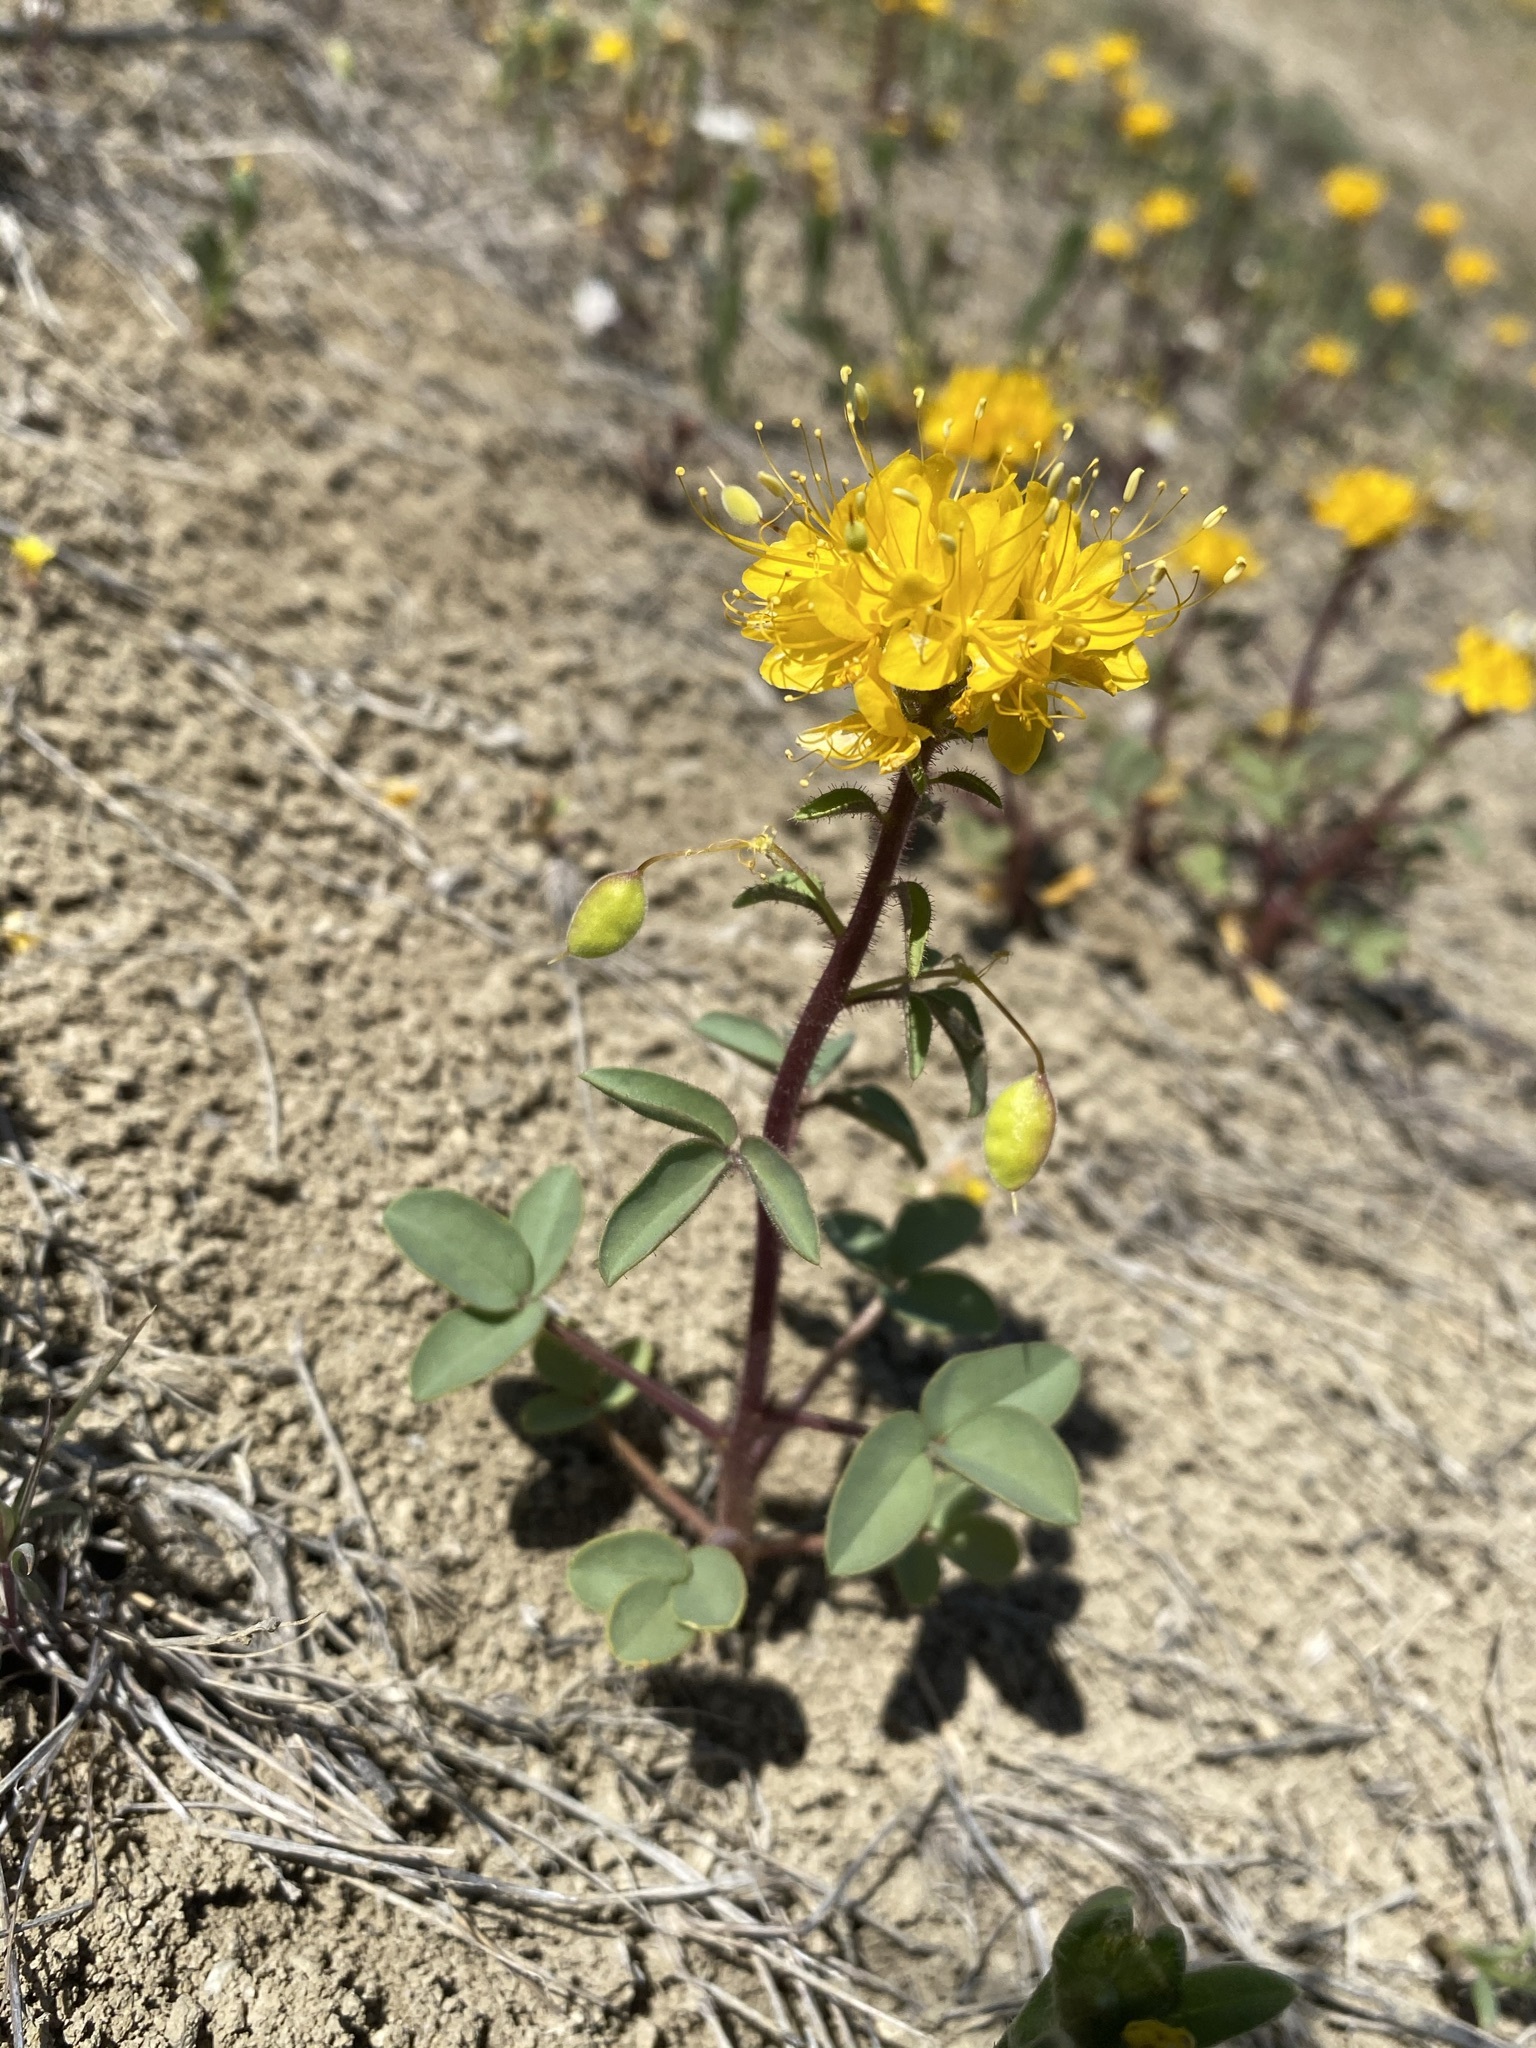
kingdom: Plantae
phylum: Tracheophyta
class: Magnoliopsida
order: Brassicales
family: Cleomaceae
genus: Cleomella
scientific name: Cleomella platycarpa
